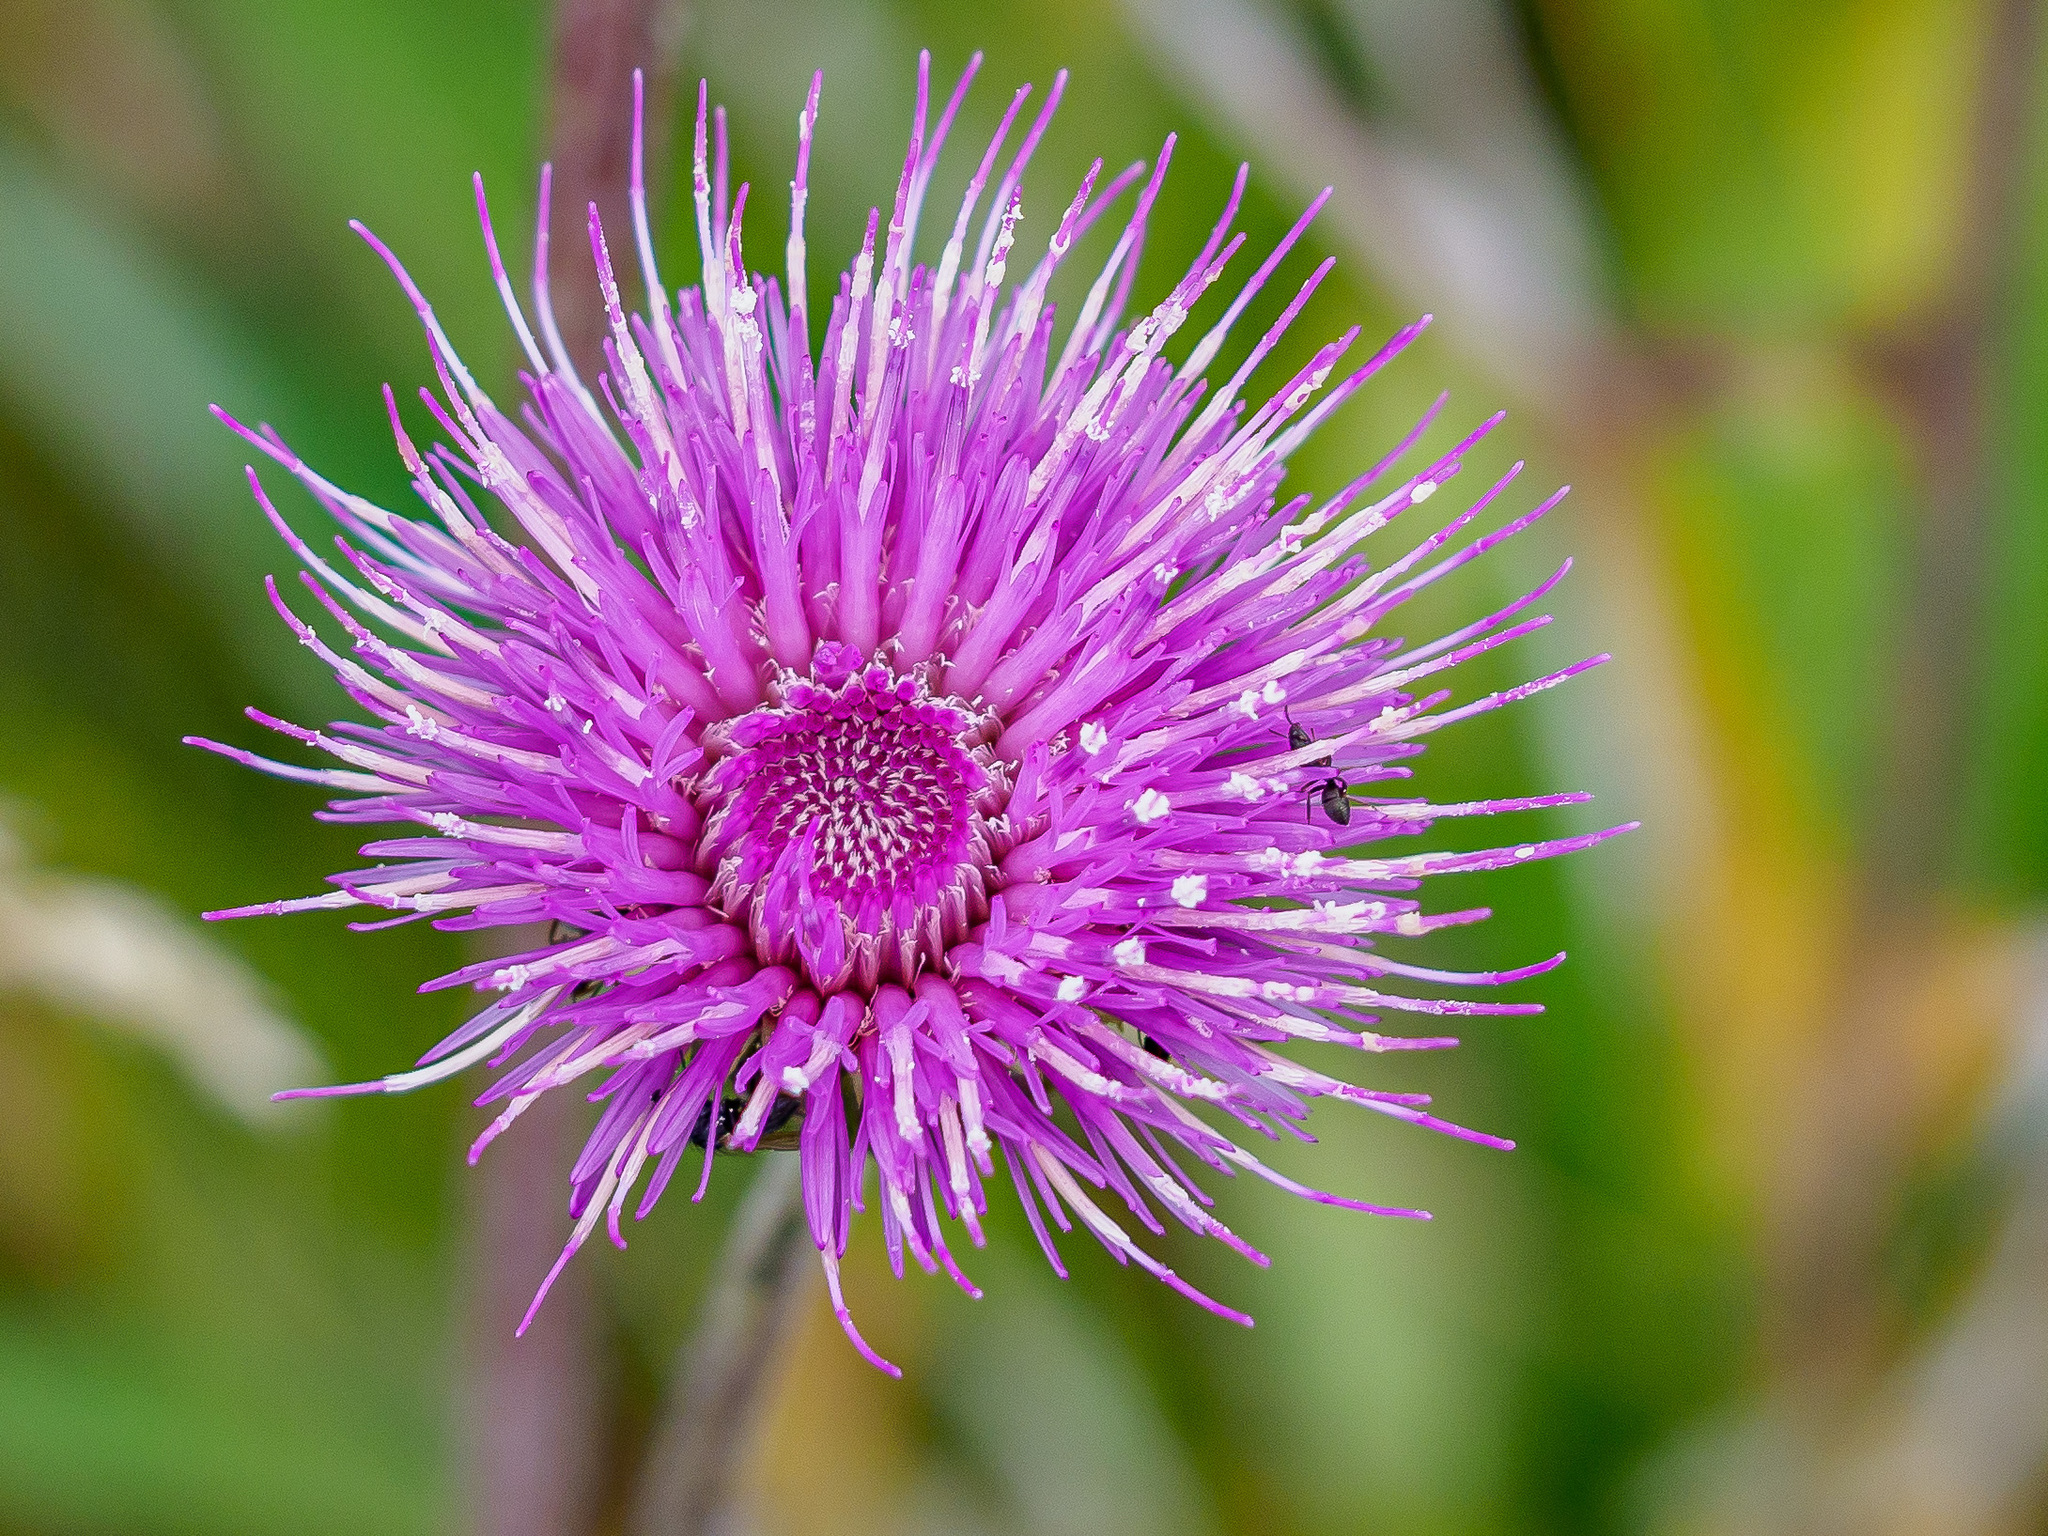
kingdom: Plantae
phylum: Tracheophyta
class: Magnoliopsida
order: Asterales
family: Asteraceae
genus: Cirsium
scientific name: Cirsium heterophyllum
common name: Melancholy thistle
